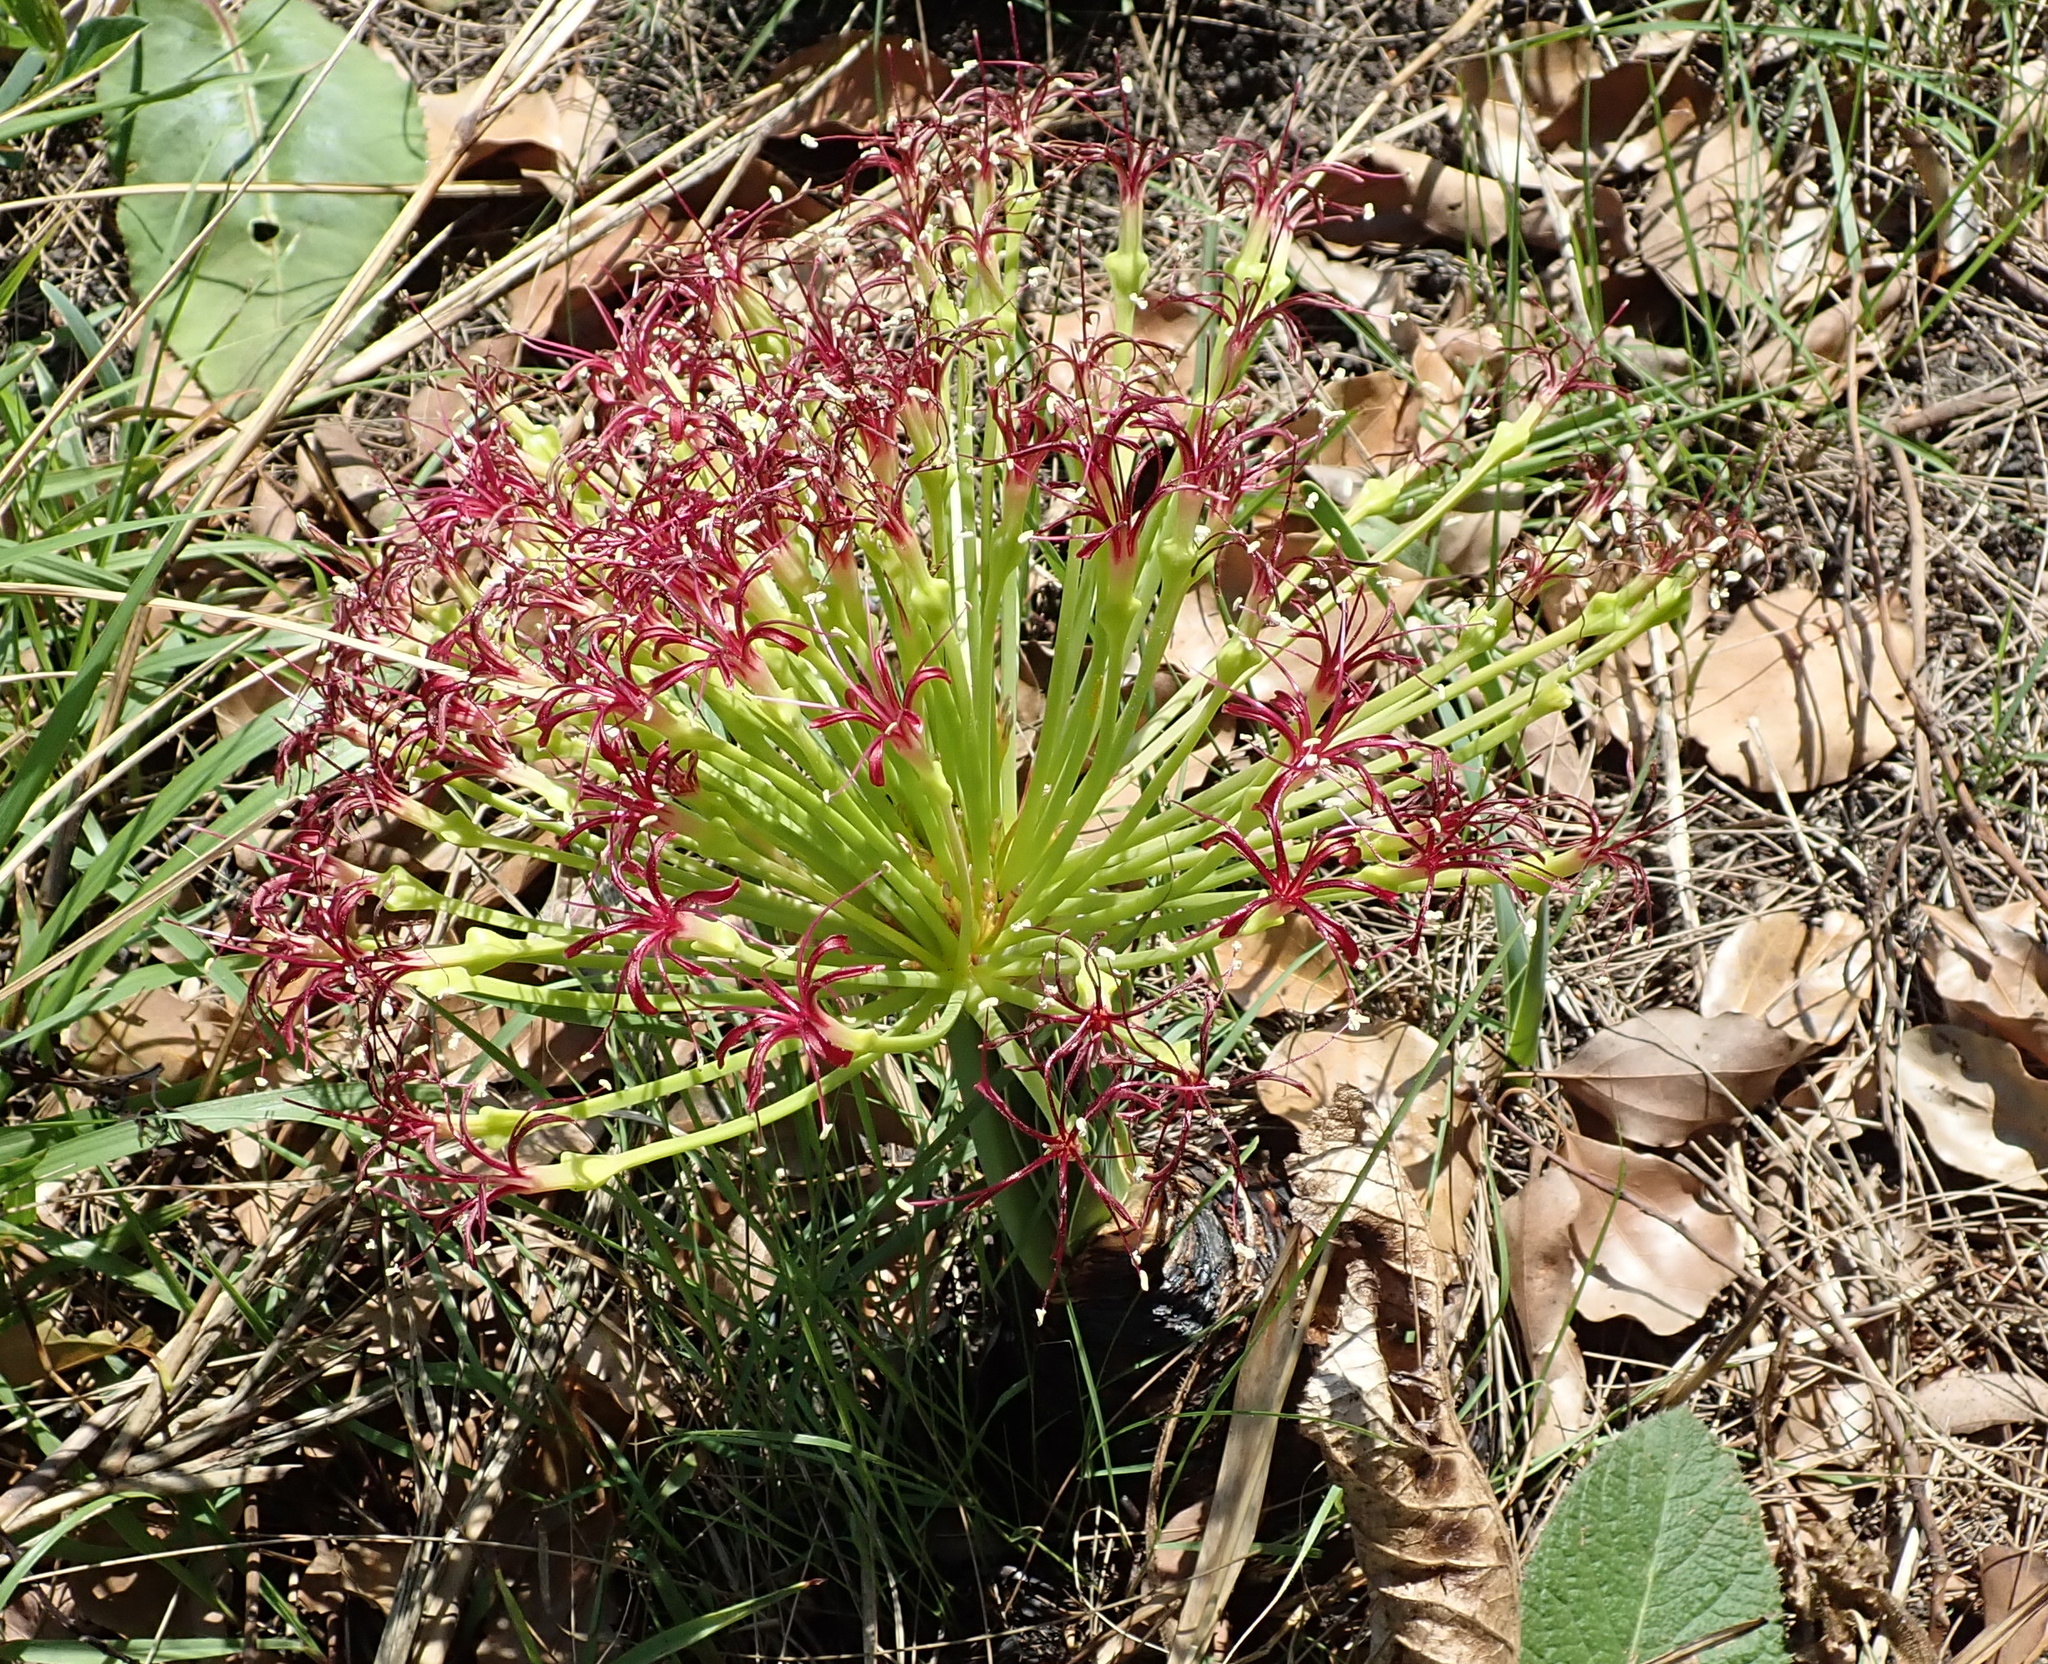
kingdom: Plantae
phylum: Tracheophyta
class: Liliopsida
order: Asparagales
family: Amaryllidaceae
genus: Boophone
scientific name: Boophone disticha
